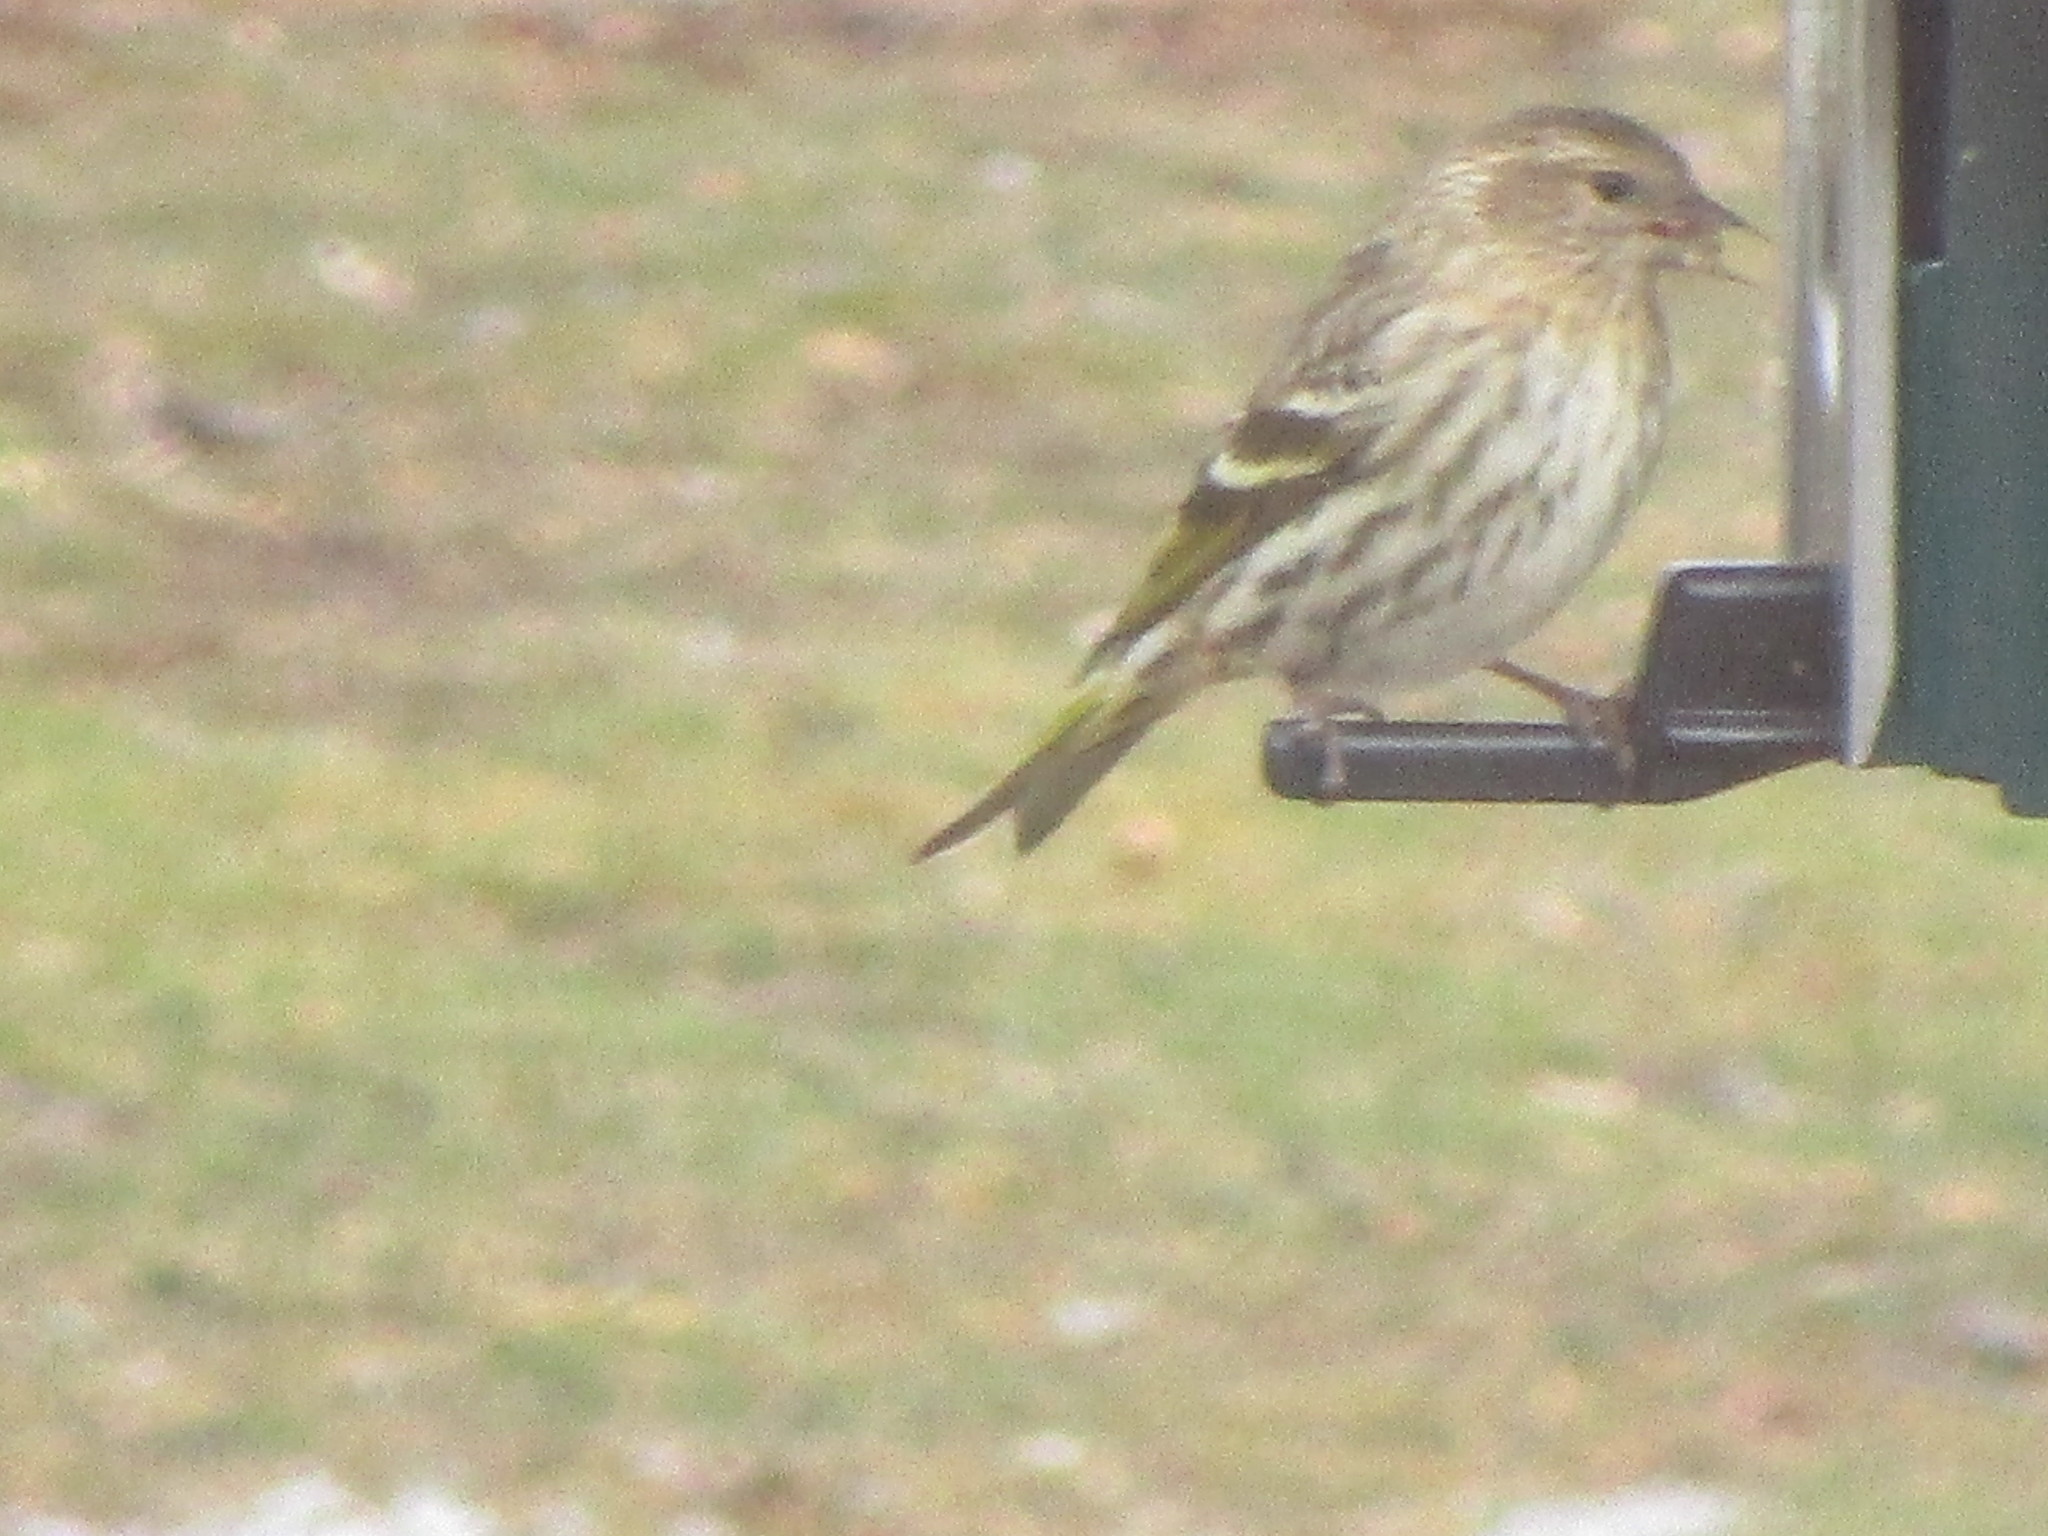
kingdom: Animalia
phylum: Chordata
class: Aves
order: Passeriformes
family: Fringillidae
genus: Spinus
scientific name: Spinus pinus
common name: Pine siskin
